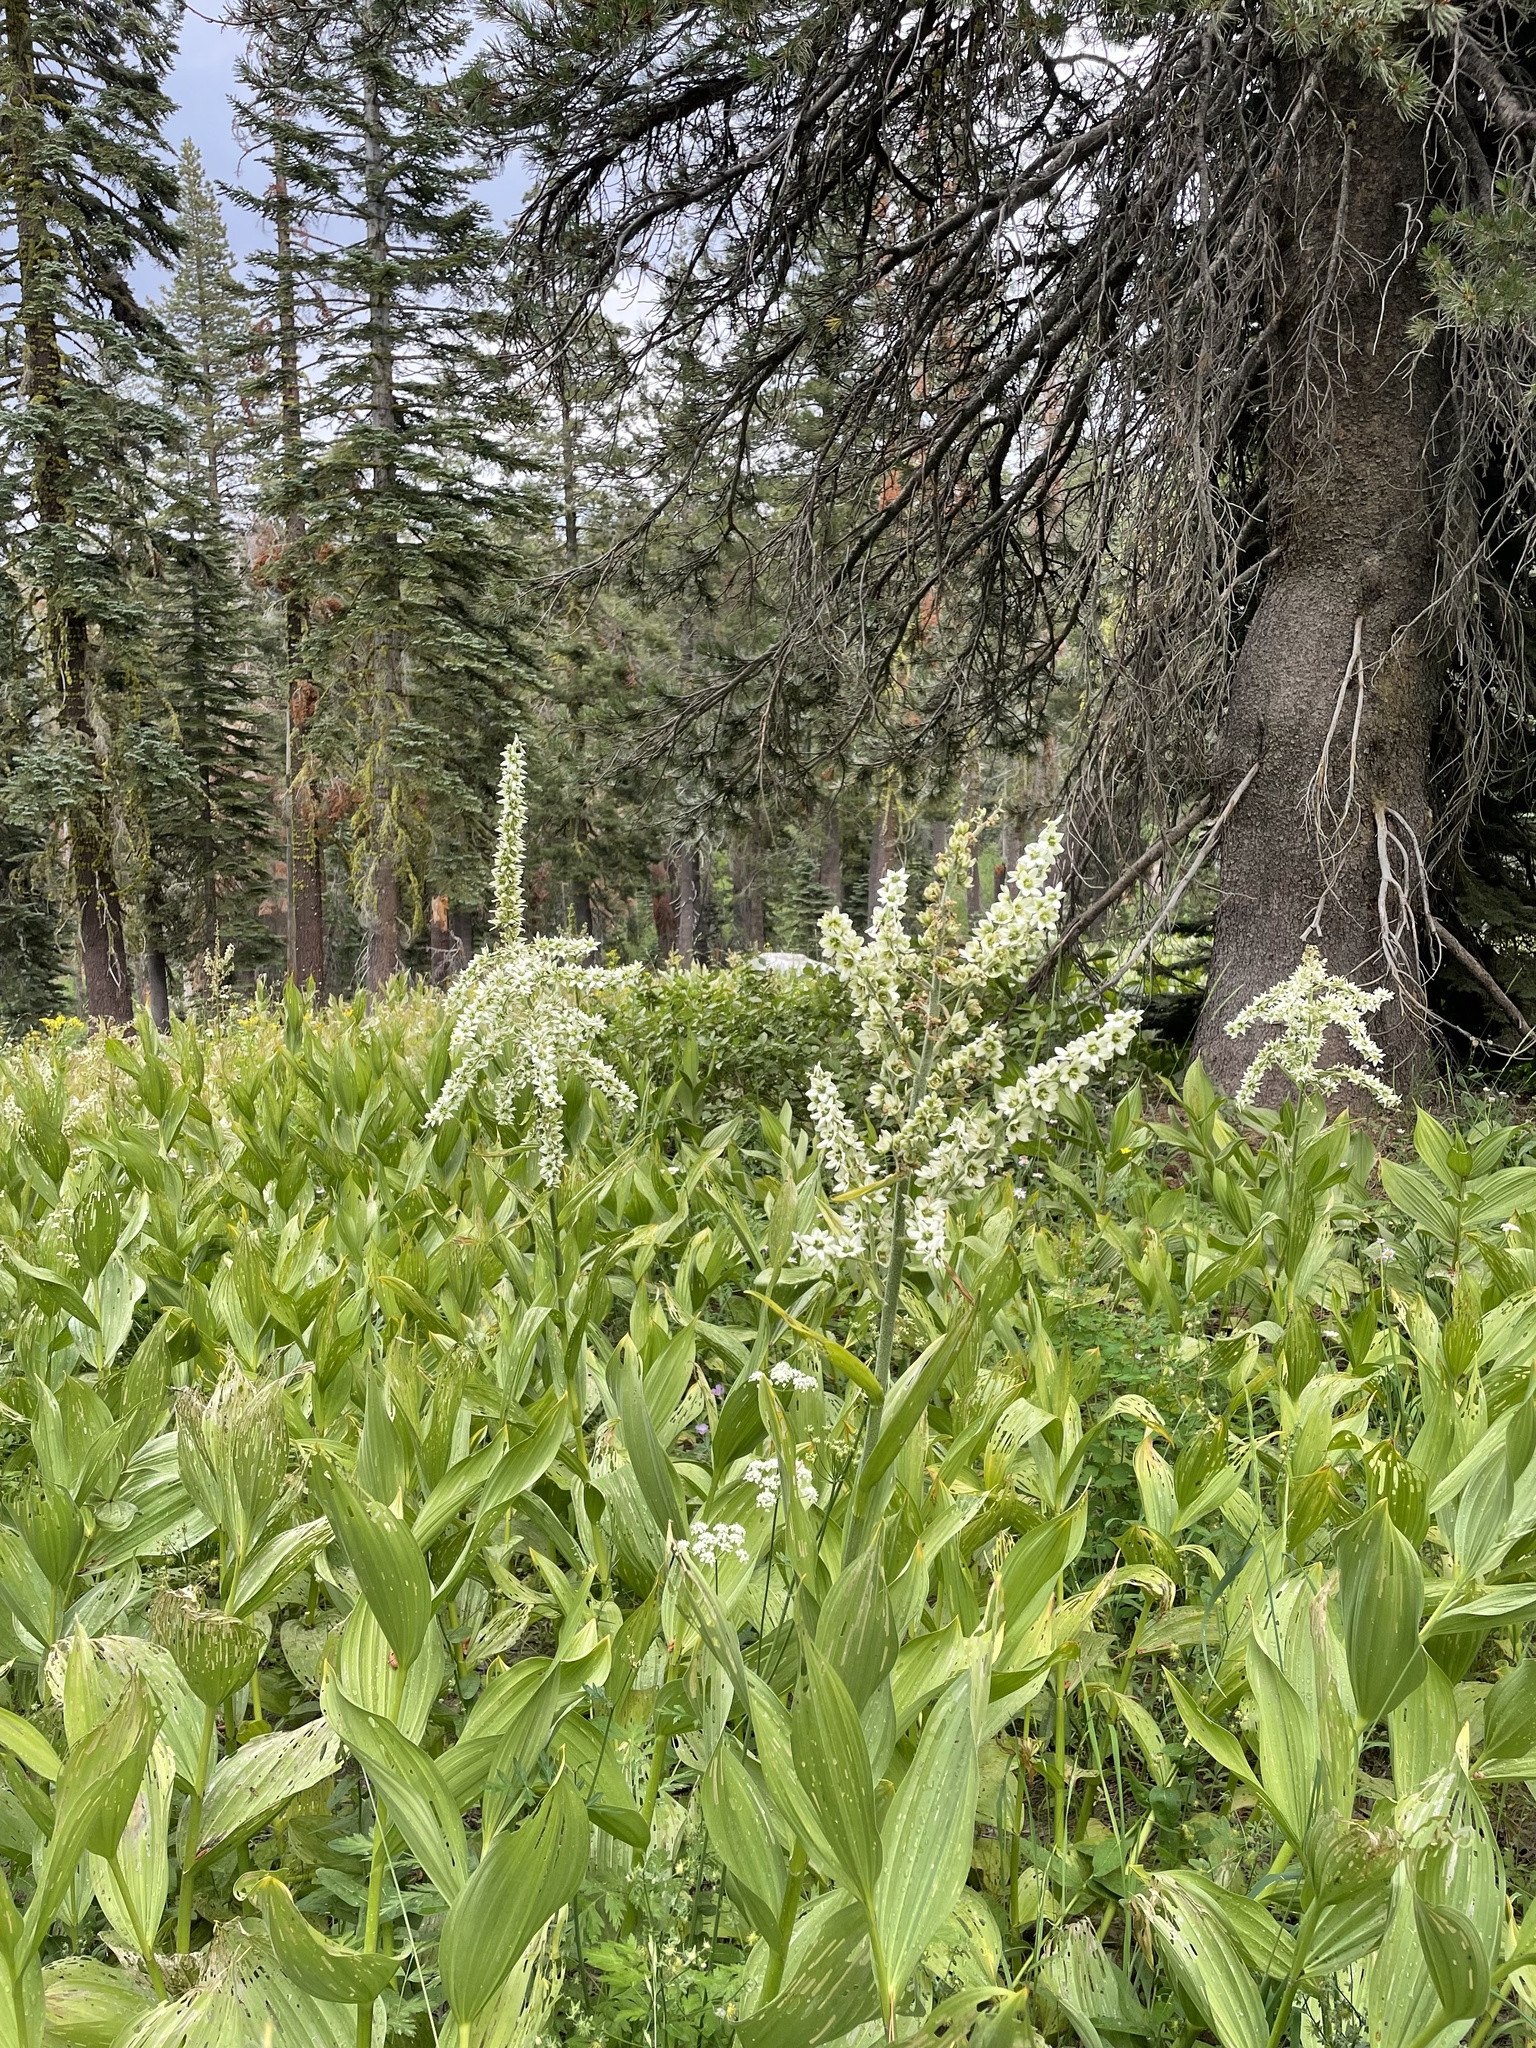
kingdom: Plantae
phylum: Tracheophyta
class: Liliopsida
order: Liliales
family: Melanthiaceae
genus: Veratrum
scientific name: Veratrum californicum
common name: California veratrum
